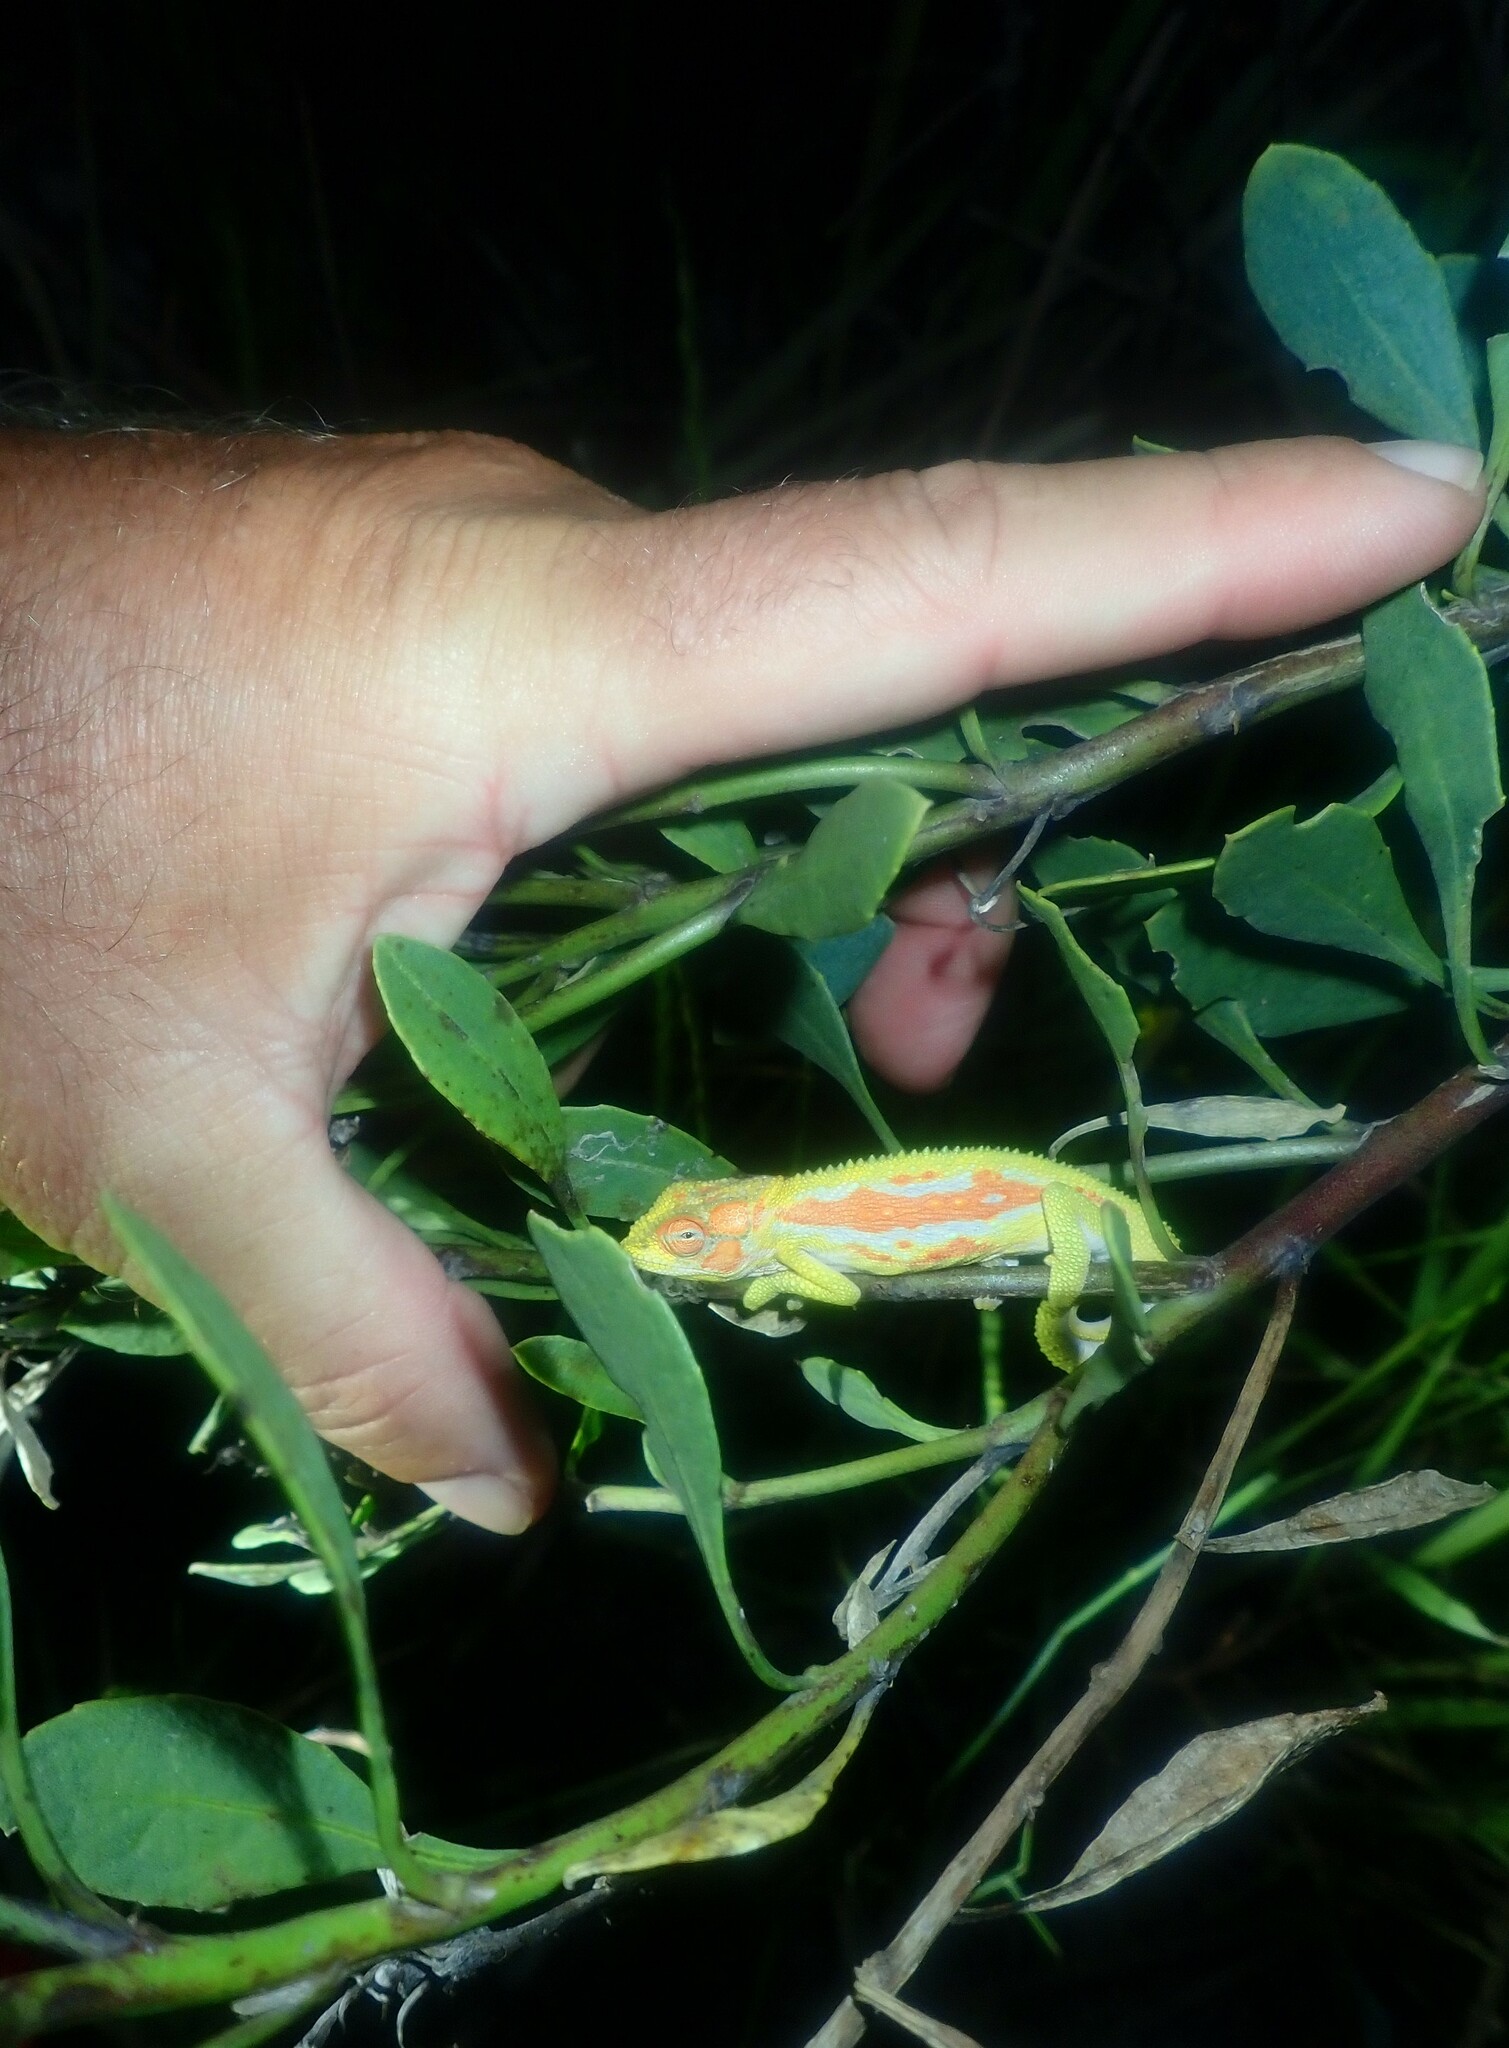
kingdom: Animalia
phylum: Chordata
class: Squamata
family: Chamaeleonidae
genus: Bradypodion
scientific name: Bradypodion pumilum
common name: Cape dwarf chameleon
